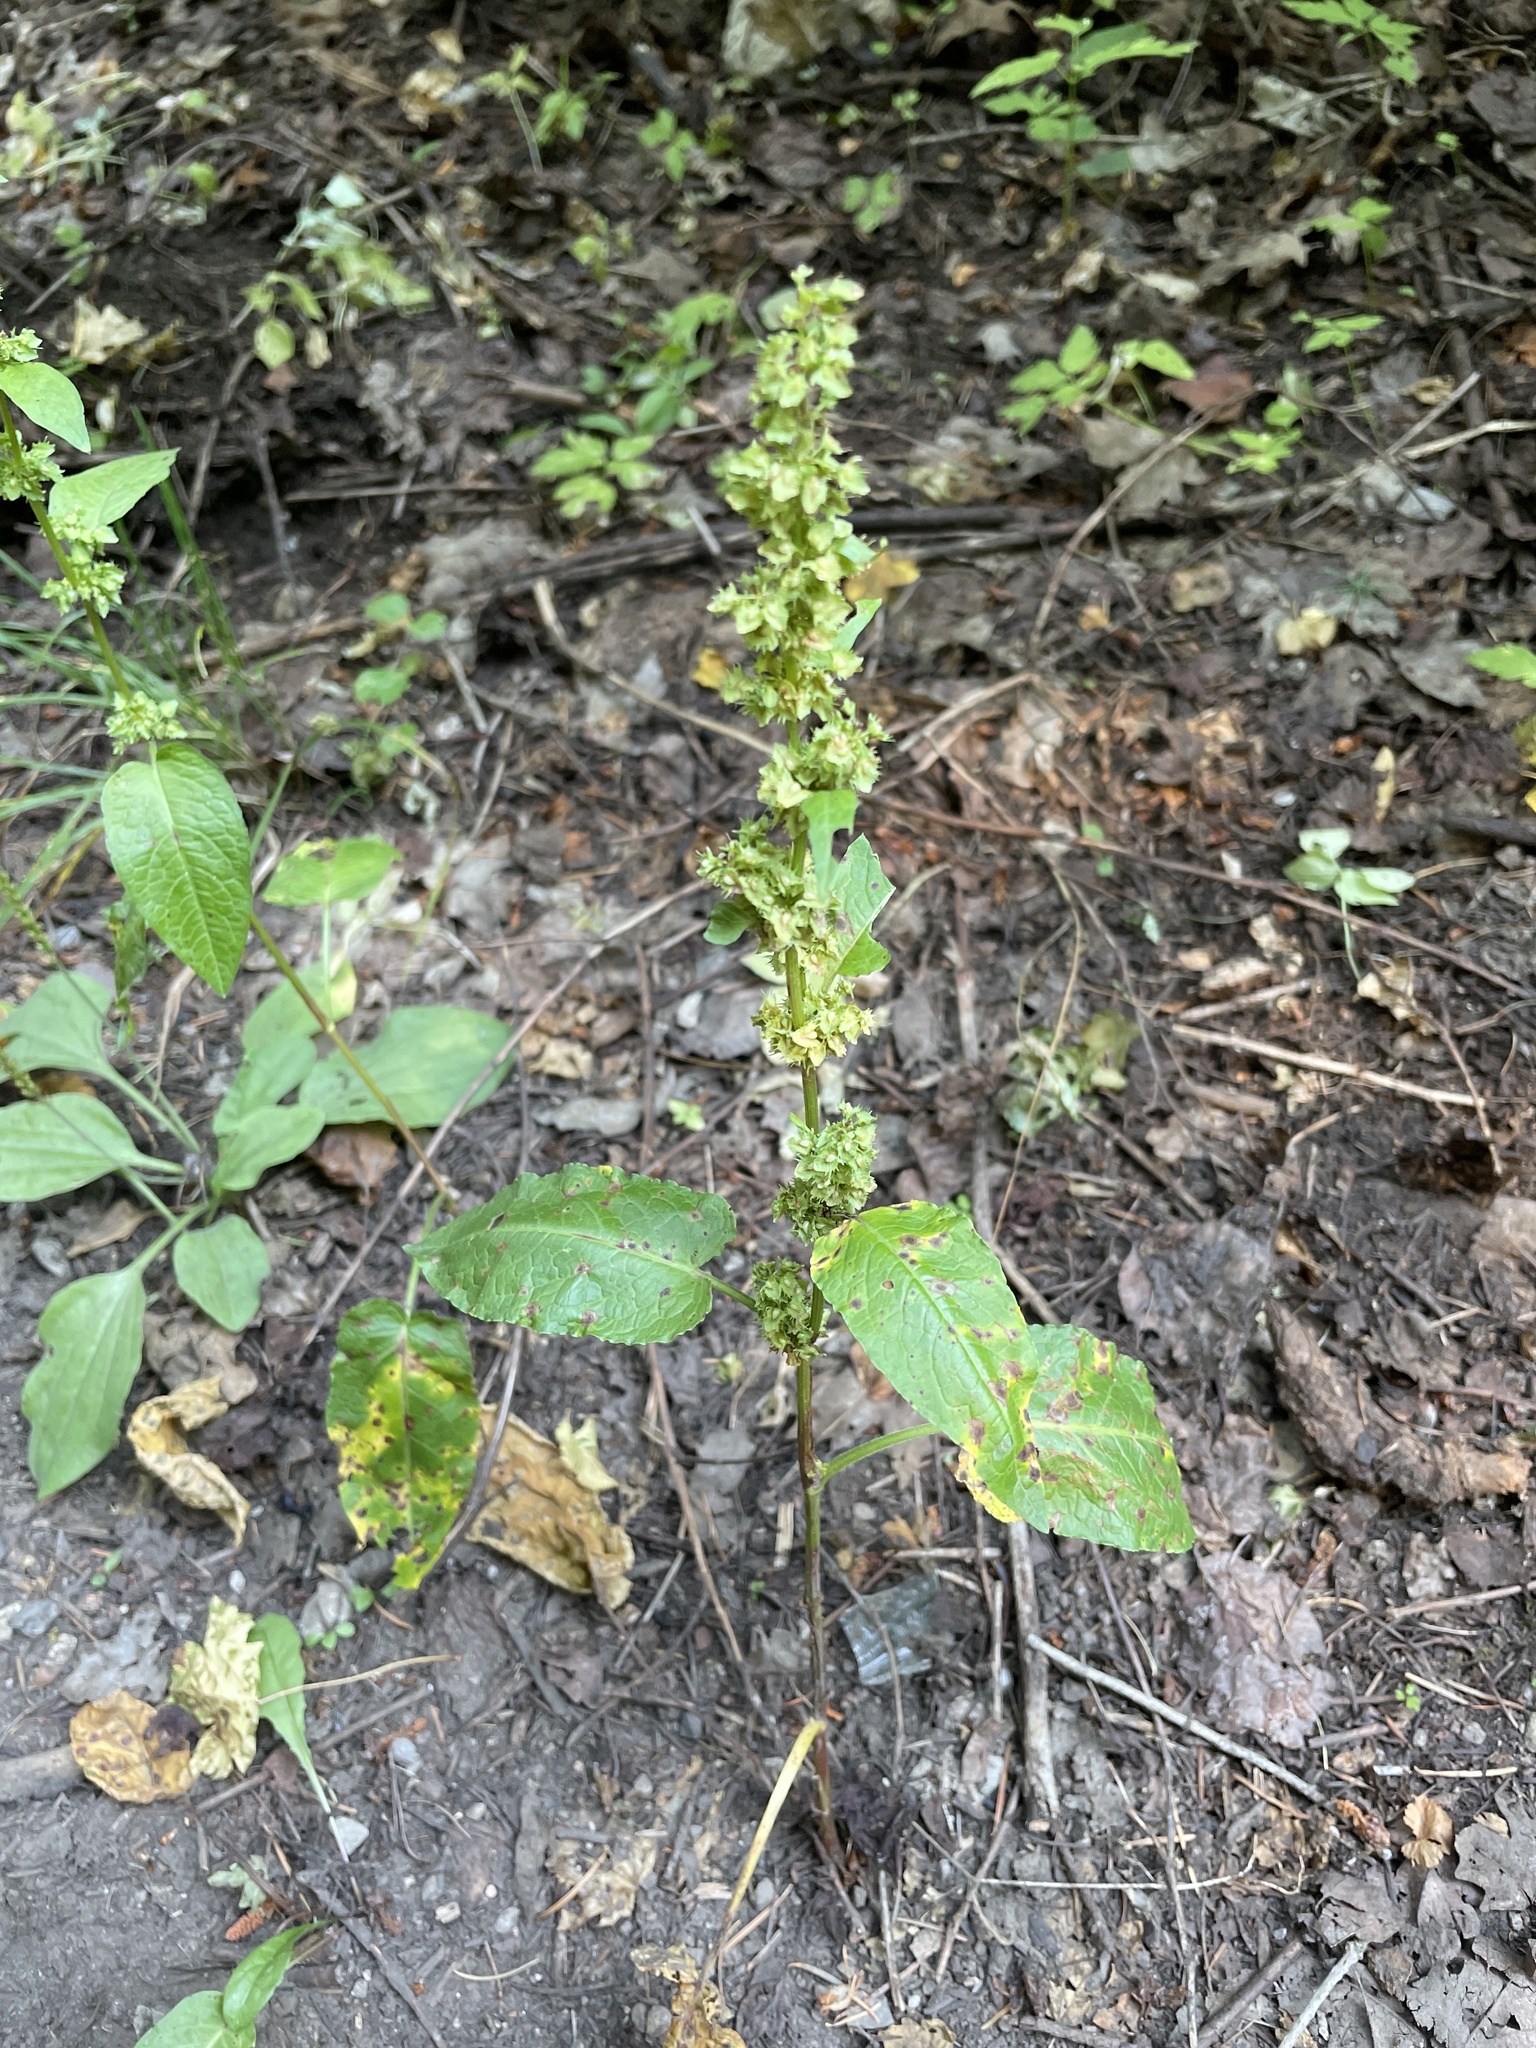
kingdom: Plantae
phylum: Tracheophyta
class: Magnoliopsida
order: Caryophyllales
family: Polygonaceae
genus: Rumex
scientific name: Rumex obtusifolius
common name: Bitter dock
